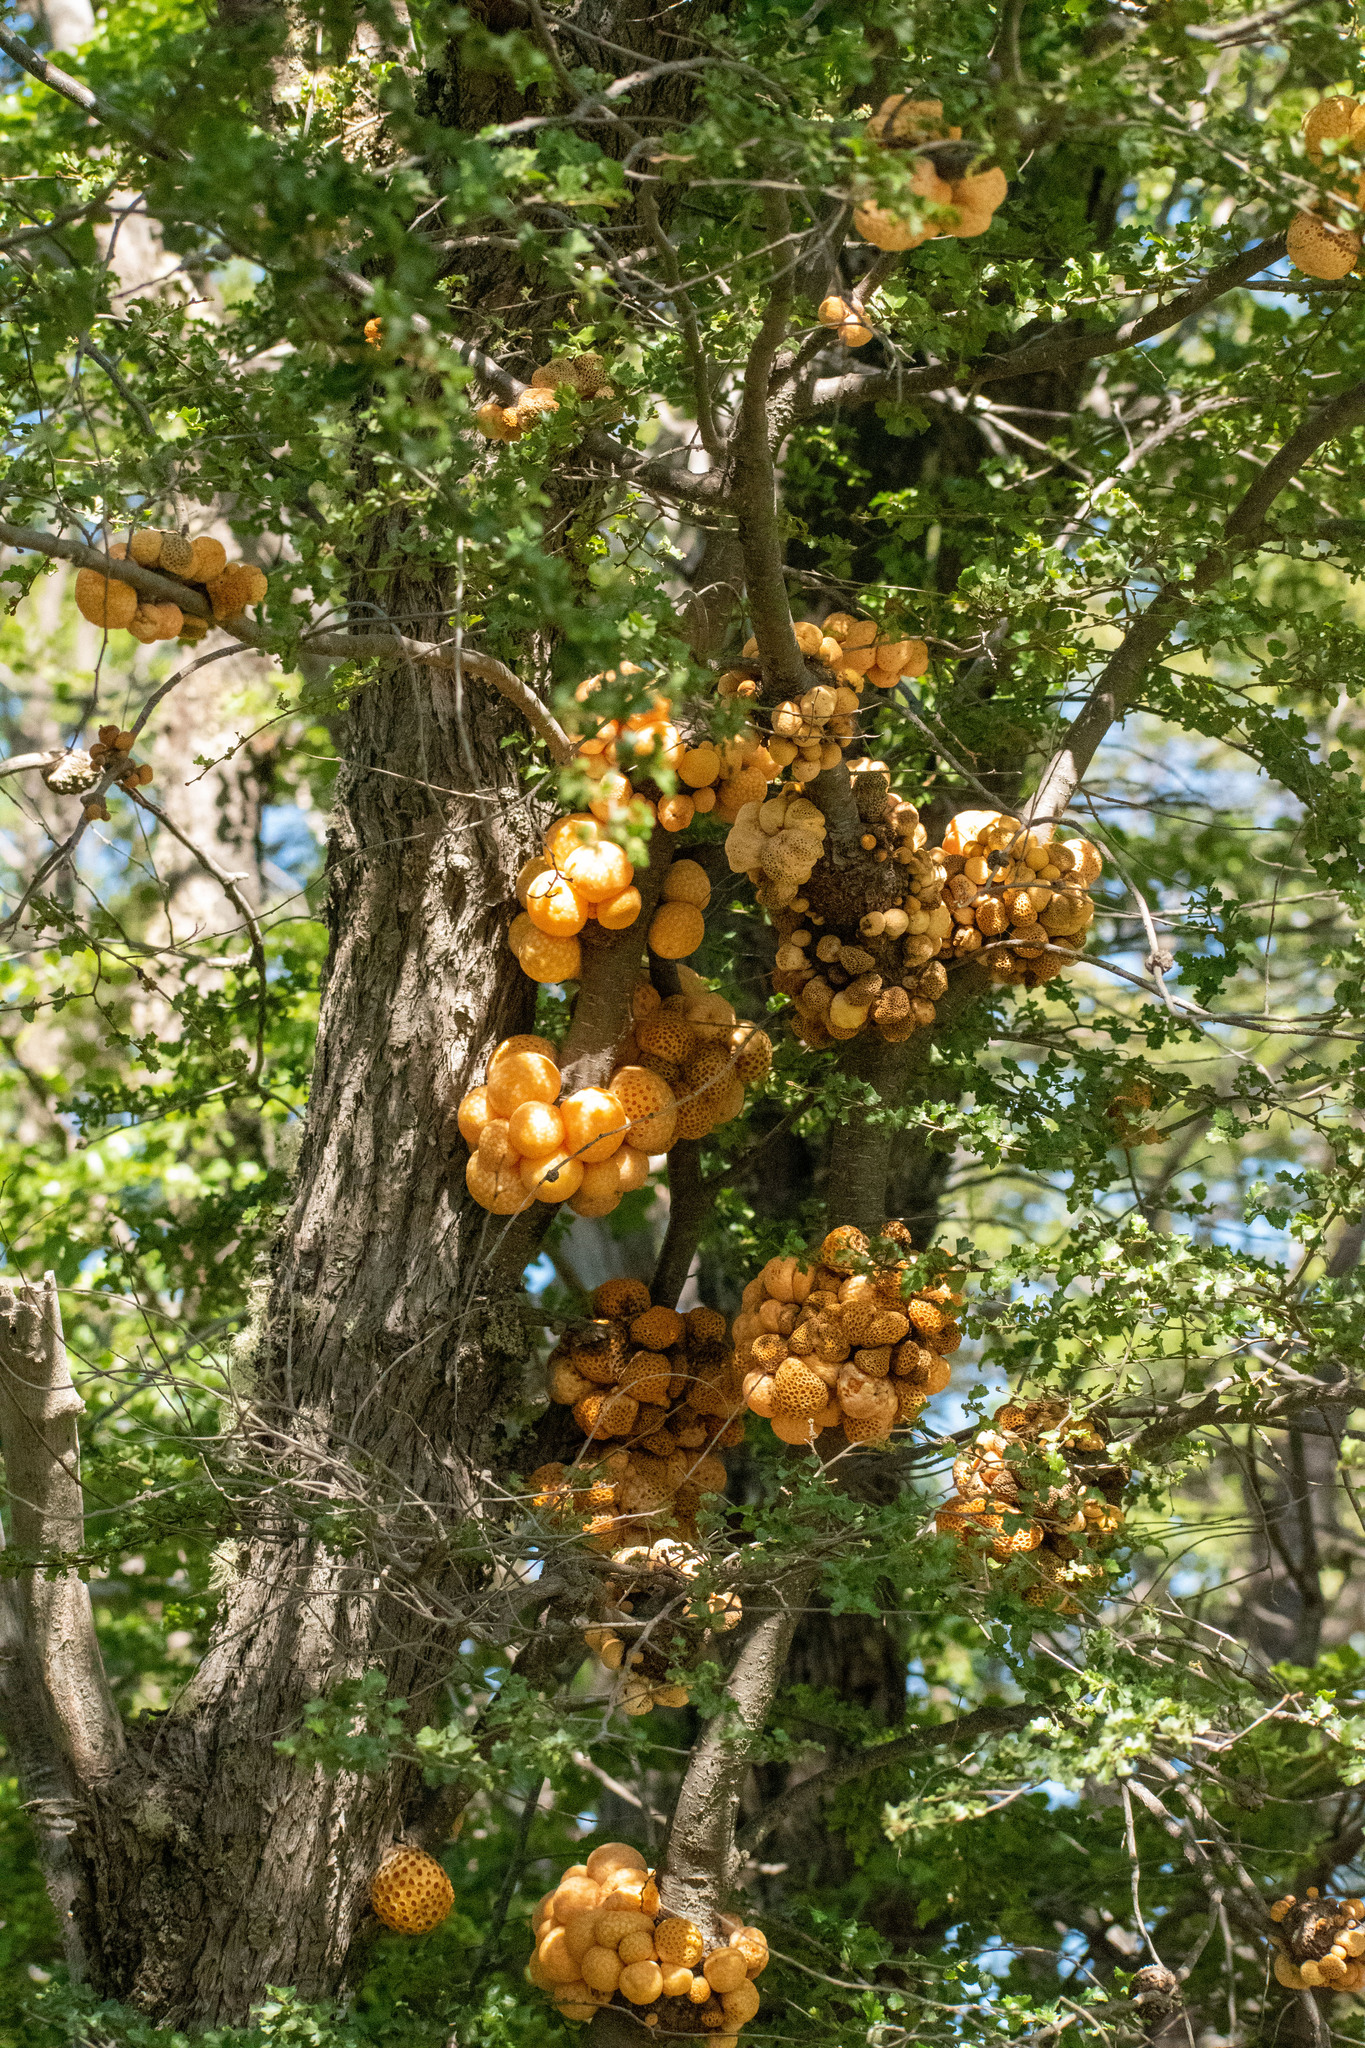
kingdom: Fungi
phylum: Ascomycota
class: Leotiomycetes
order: Cyttariales
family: Cyttariaceae
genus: Cyttaria
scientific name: Cyttaria hariotii
